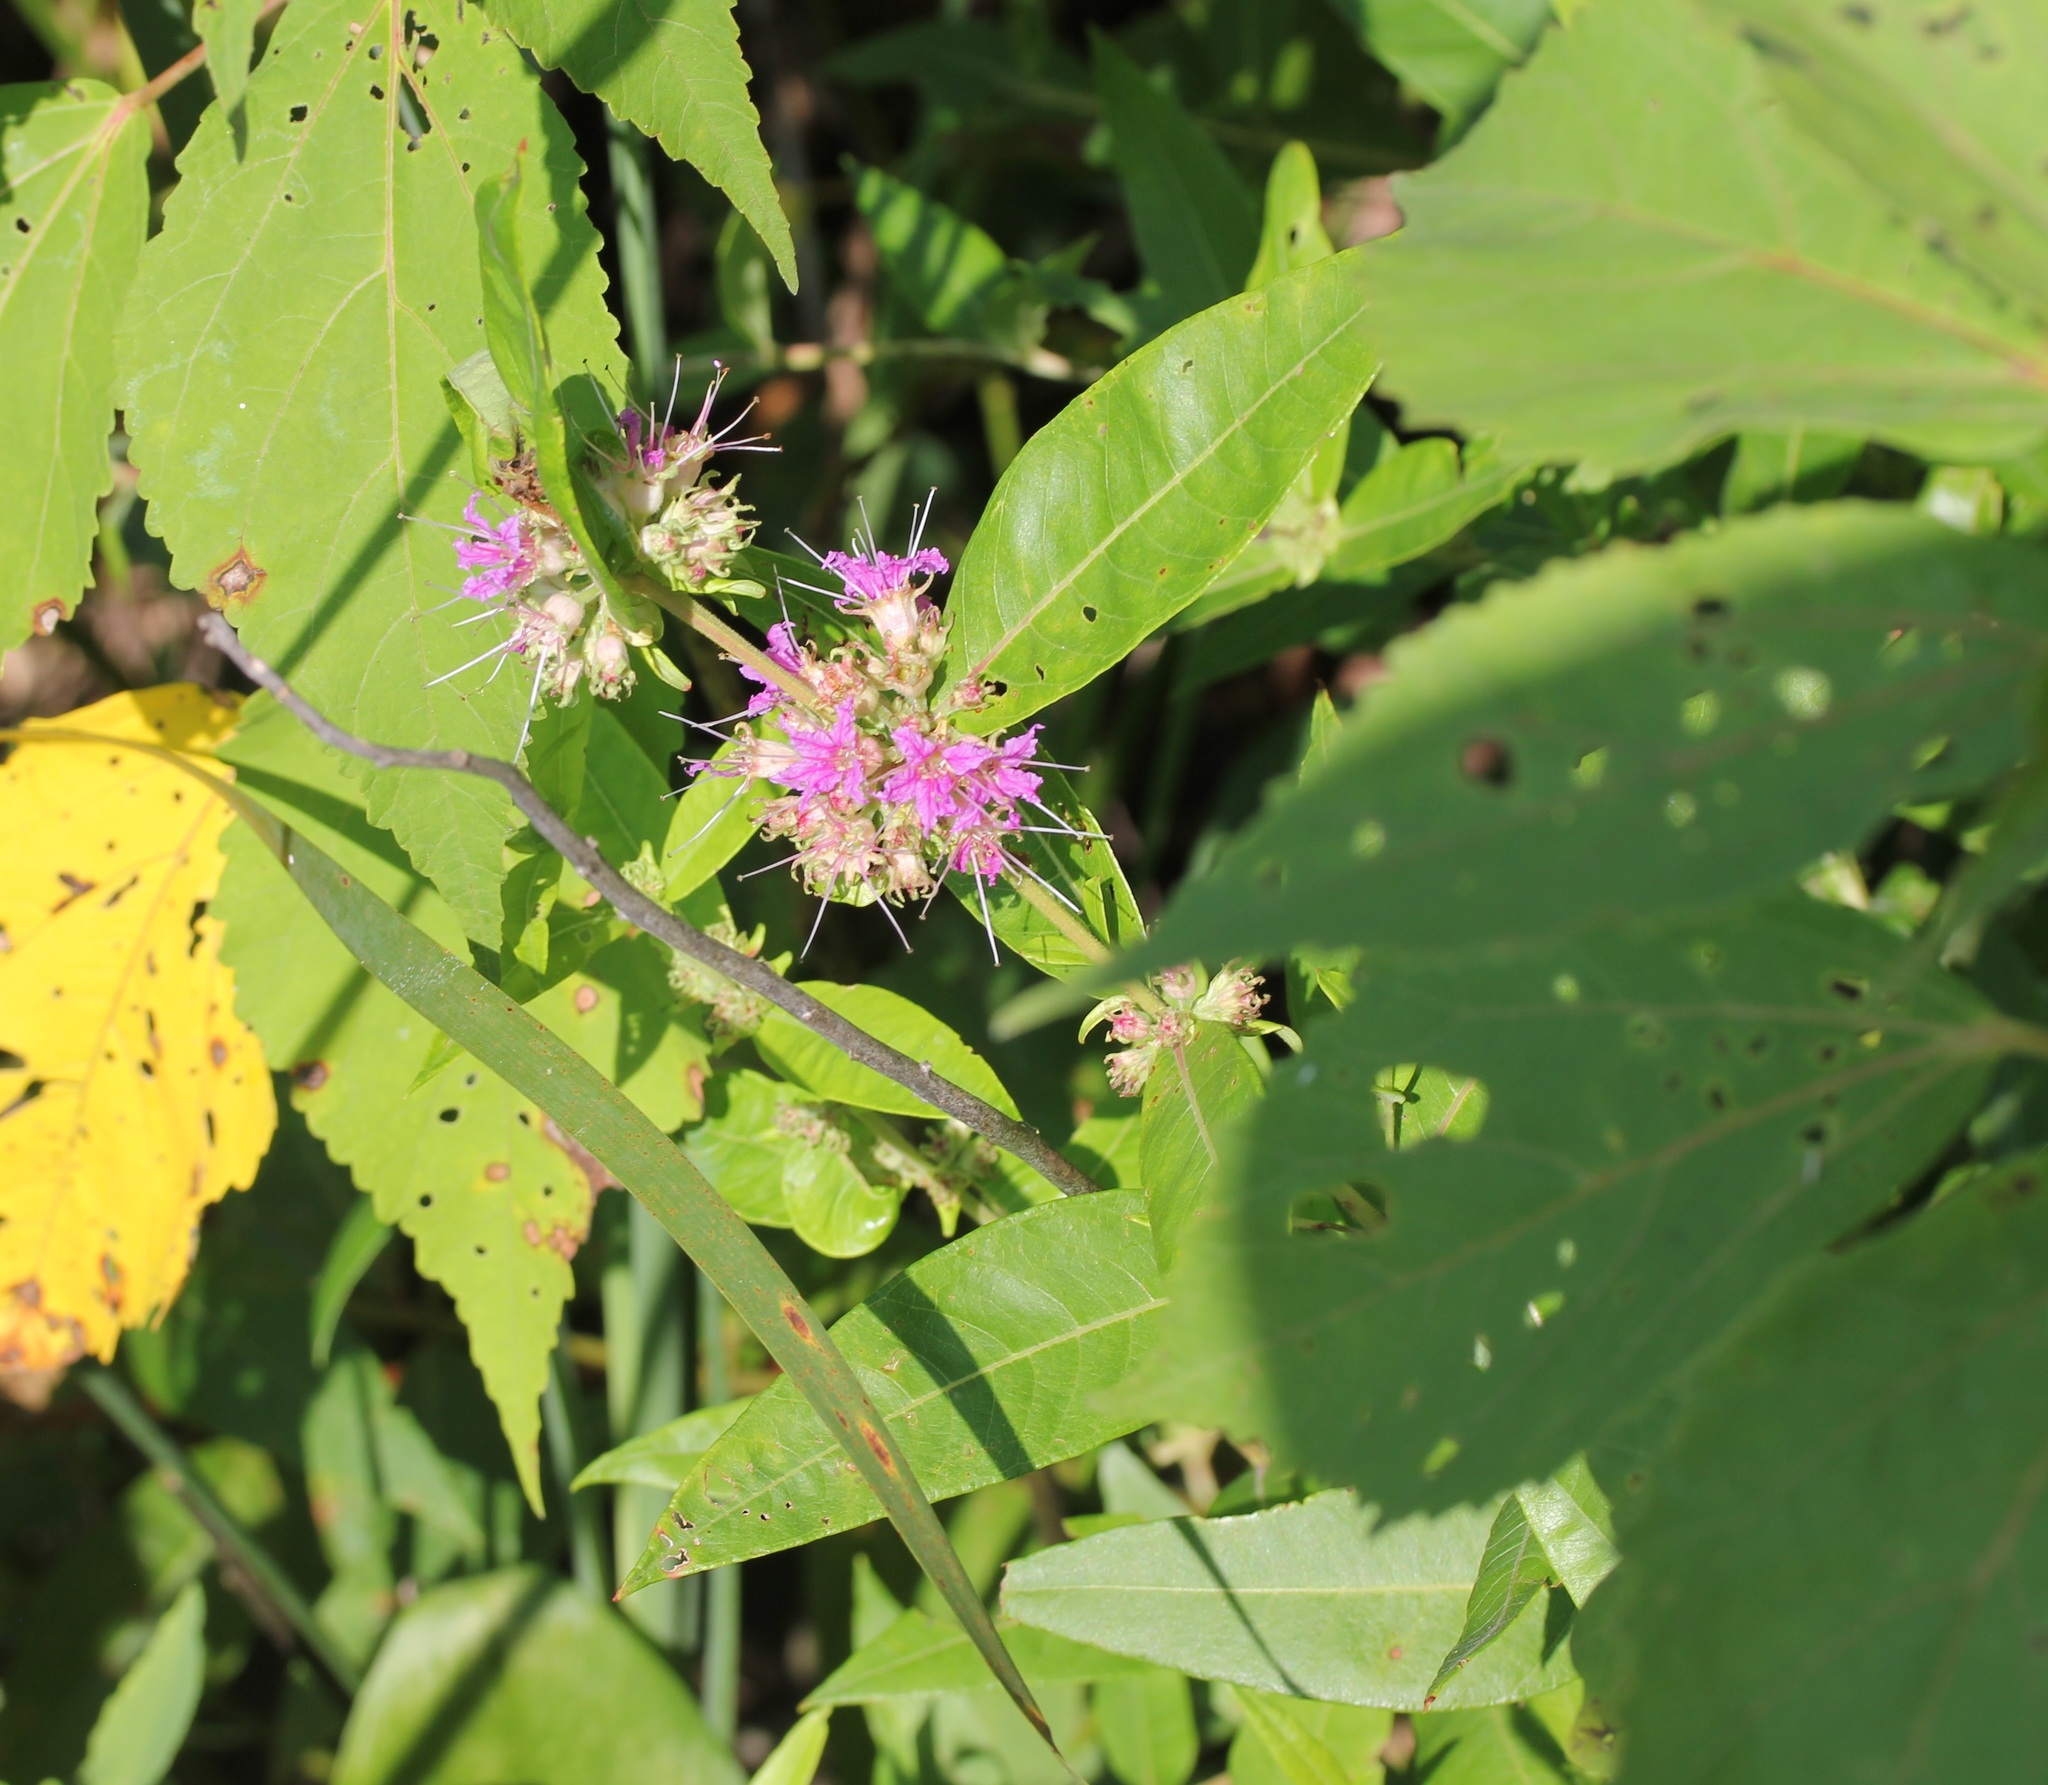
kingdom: Plantae
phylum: Tracheophyta
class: Magnoliopsida
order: Myrtales
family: Lythraceae
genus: Decodon
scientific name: Decodon verticillatus
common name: Hairy swamp loosestrife
